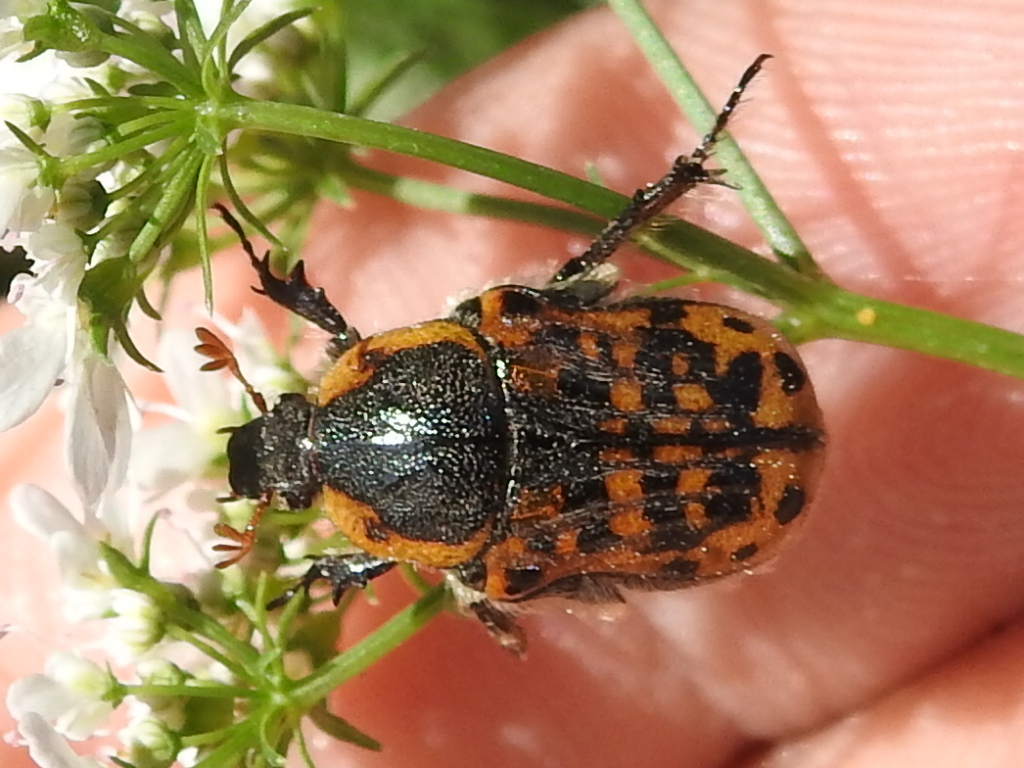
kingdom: Animalia
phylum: Arthropoda
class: Insecta
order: Coleoptera
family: Scarabaeidae
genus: Euphoria
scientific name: Euphoria kernii
